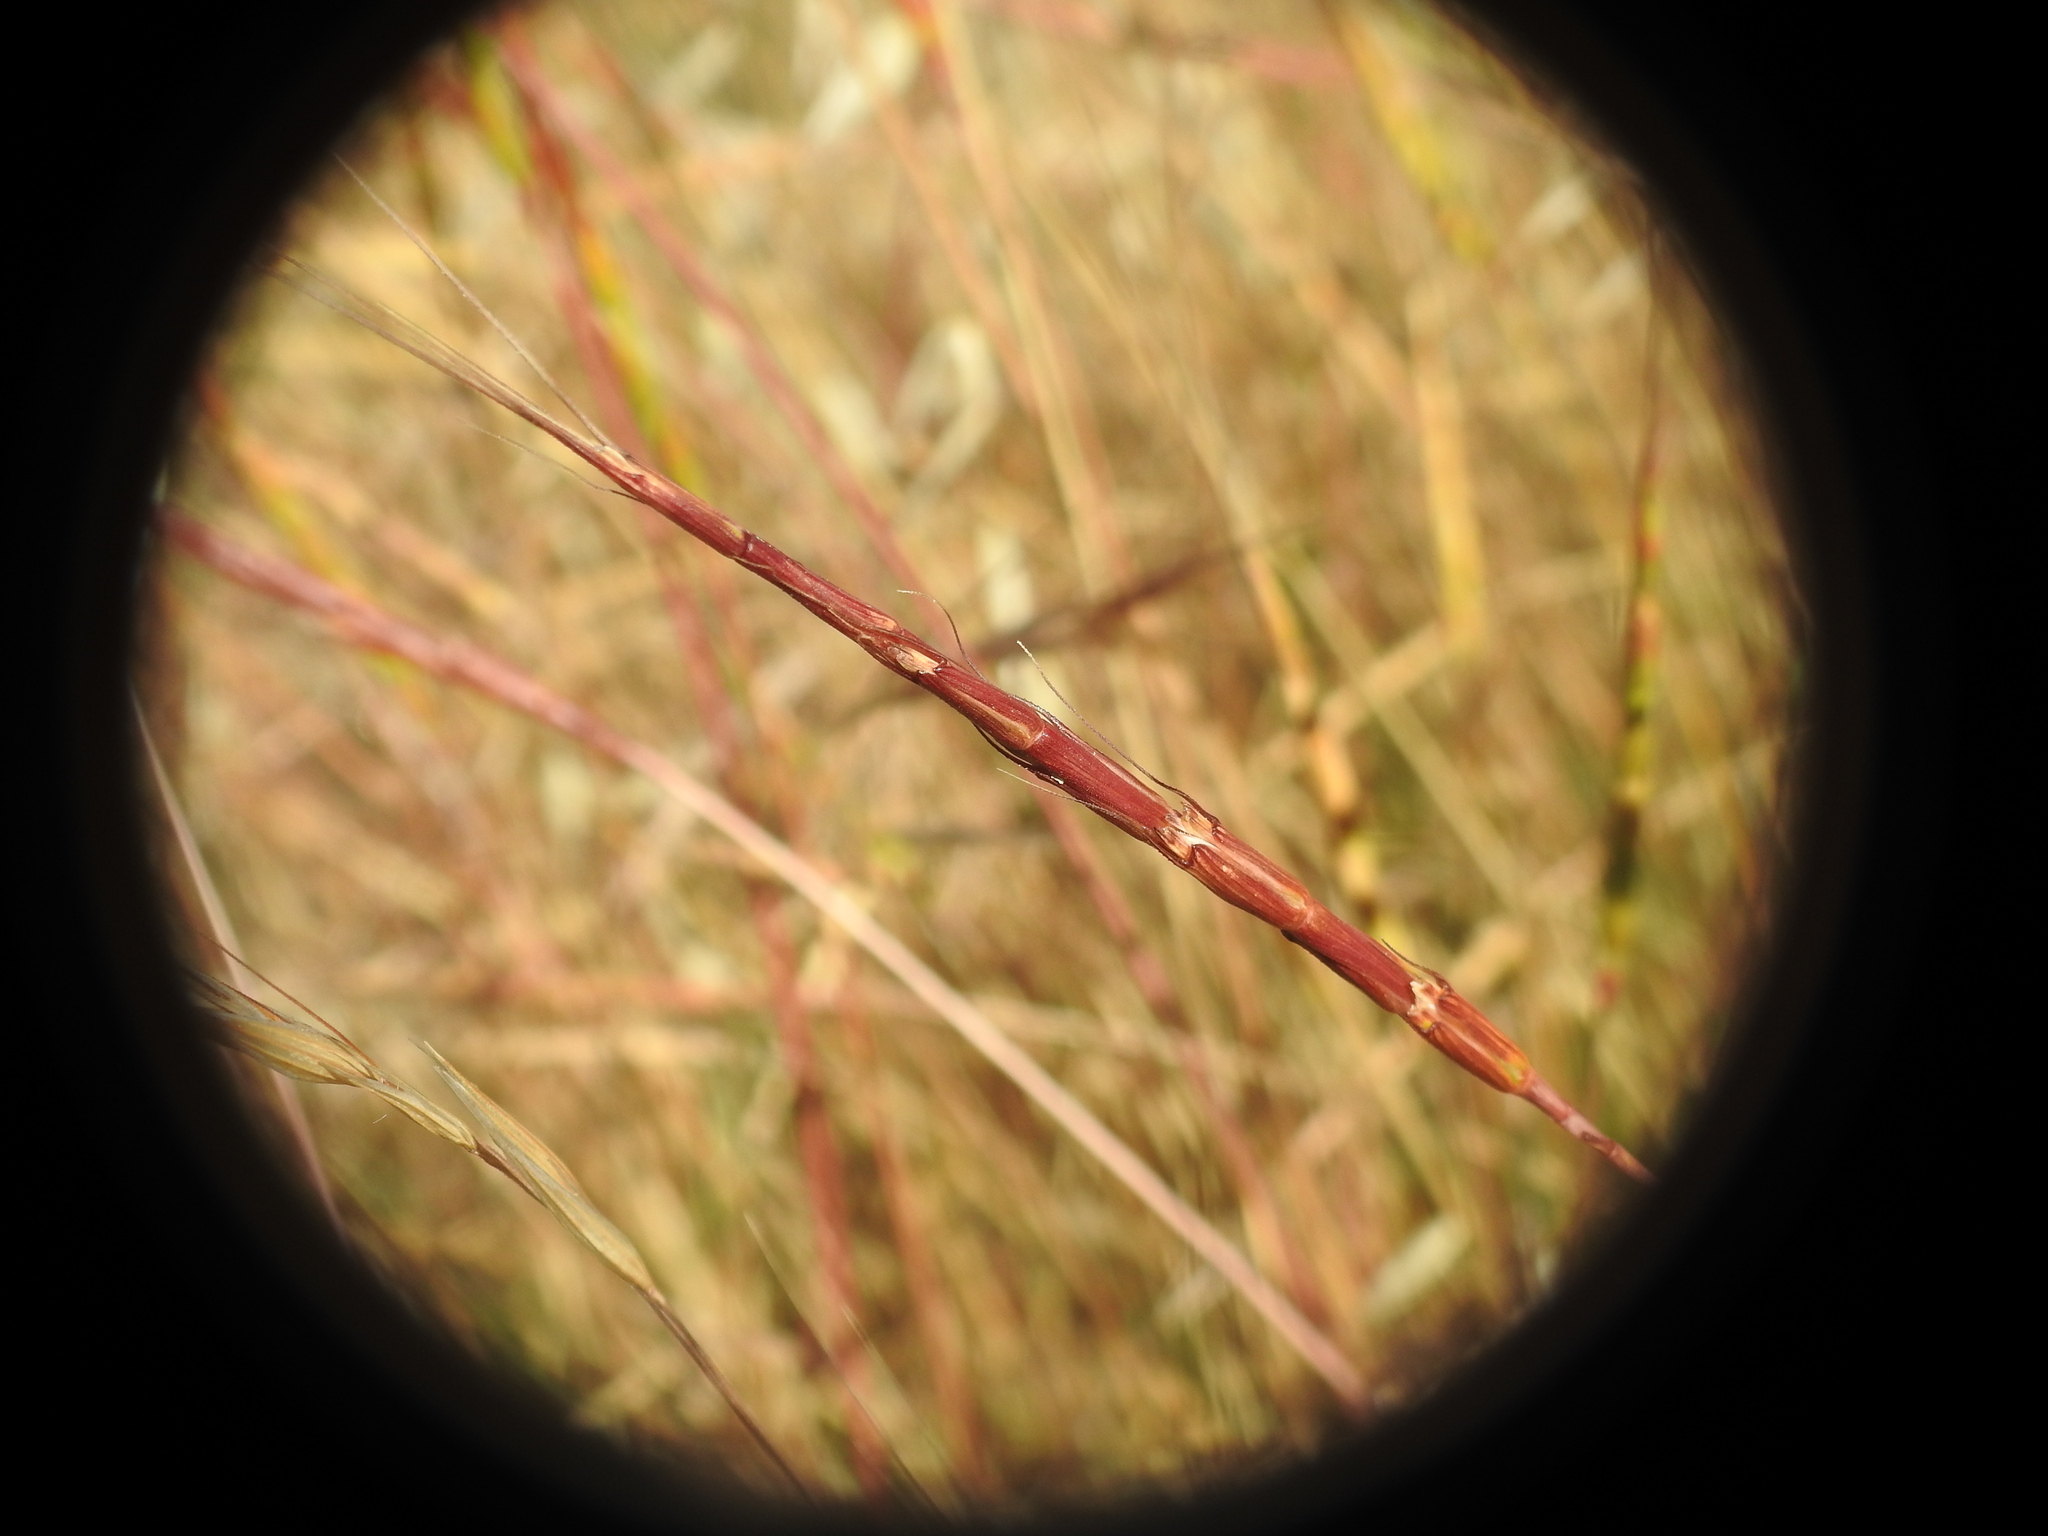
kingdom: Plantae
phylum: Tracheophyta
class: Liliopsida
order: Poales
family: Poaceae
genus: Aegilops
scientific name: Aegilops cylindrica
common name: Jointed goatgrass
